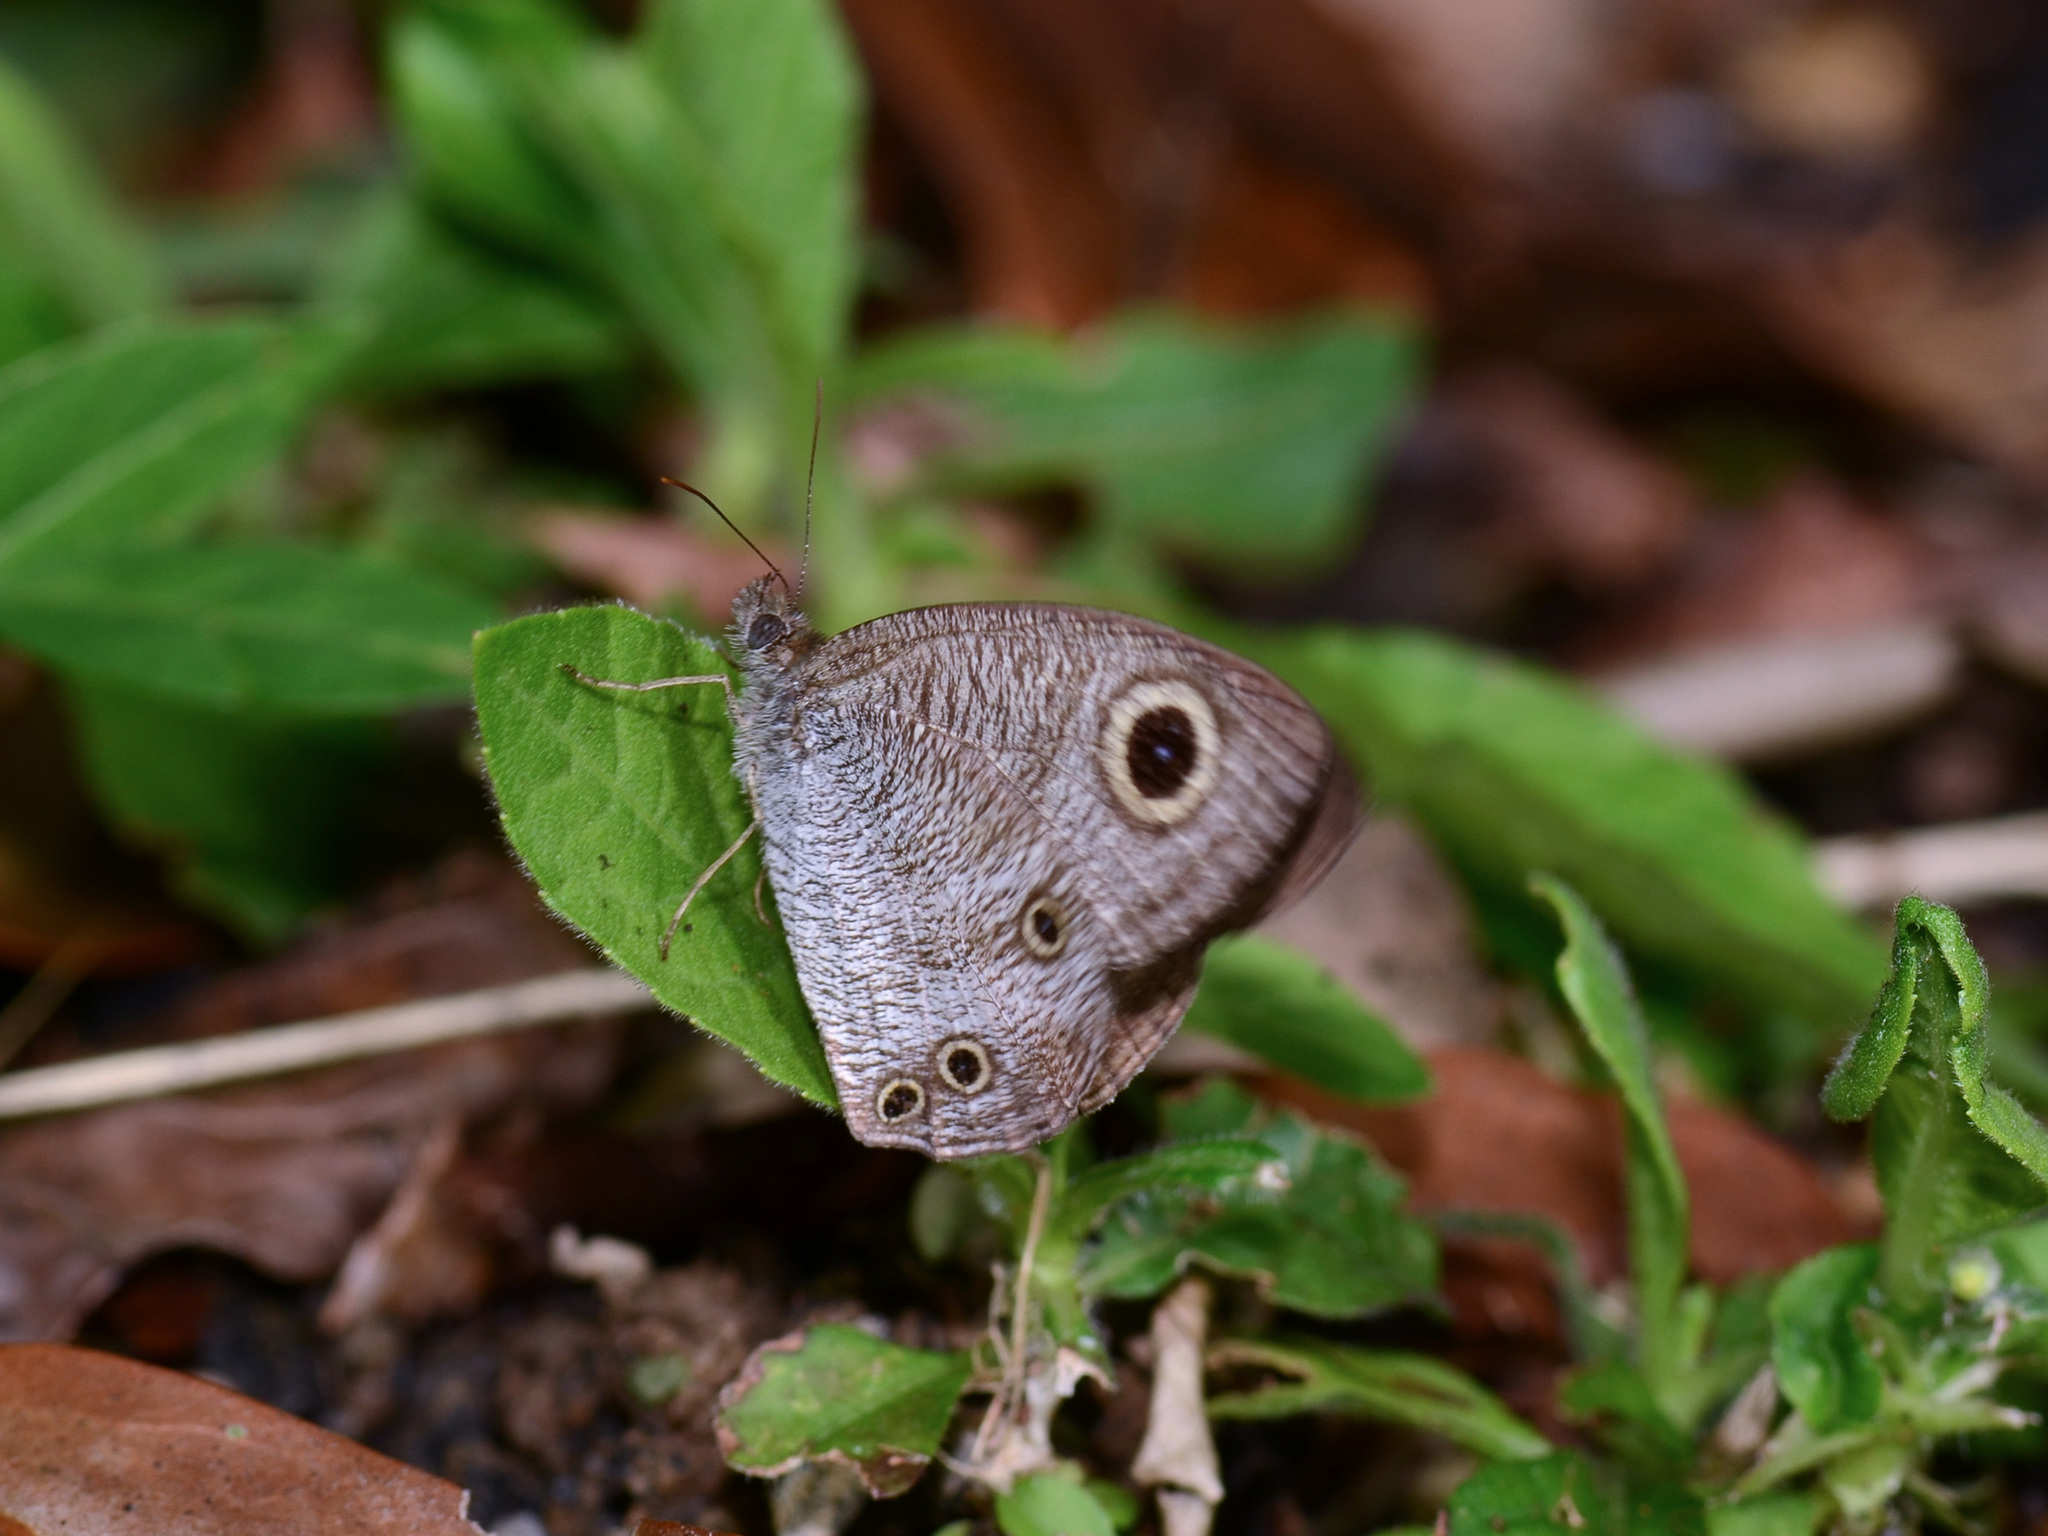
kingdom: Animalia
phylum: Arthropoda
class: Insecta
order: Lepidoptera
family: Nymphalidae
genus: Ypthima
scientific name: Ypthima pandocus
